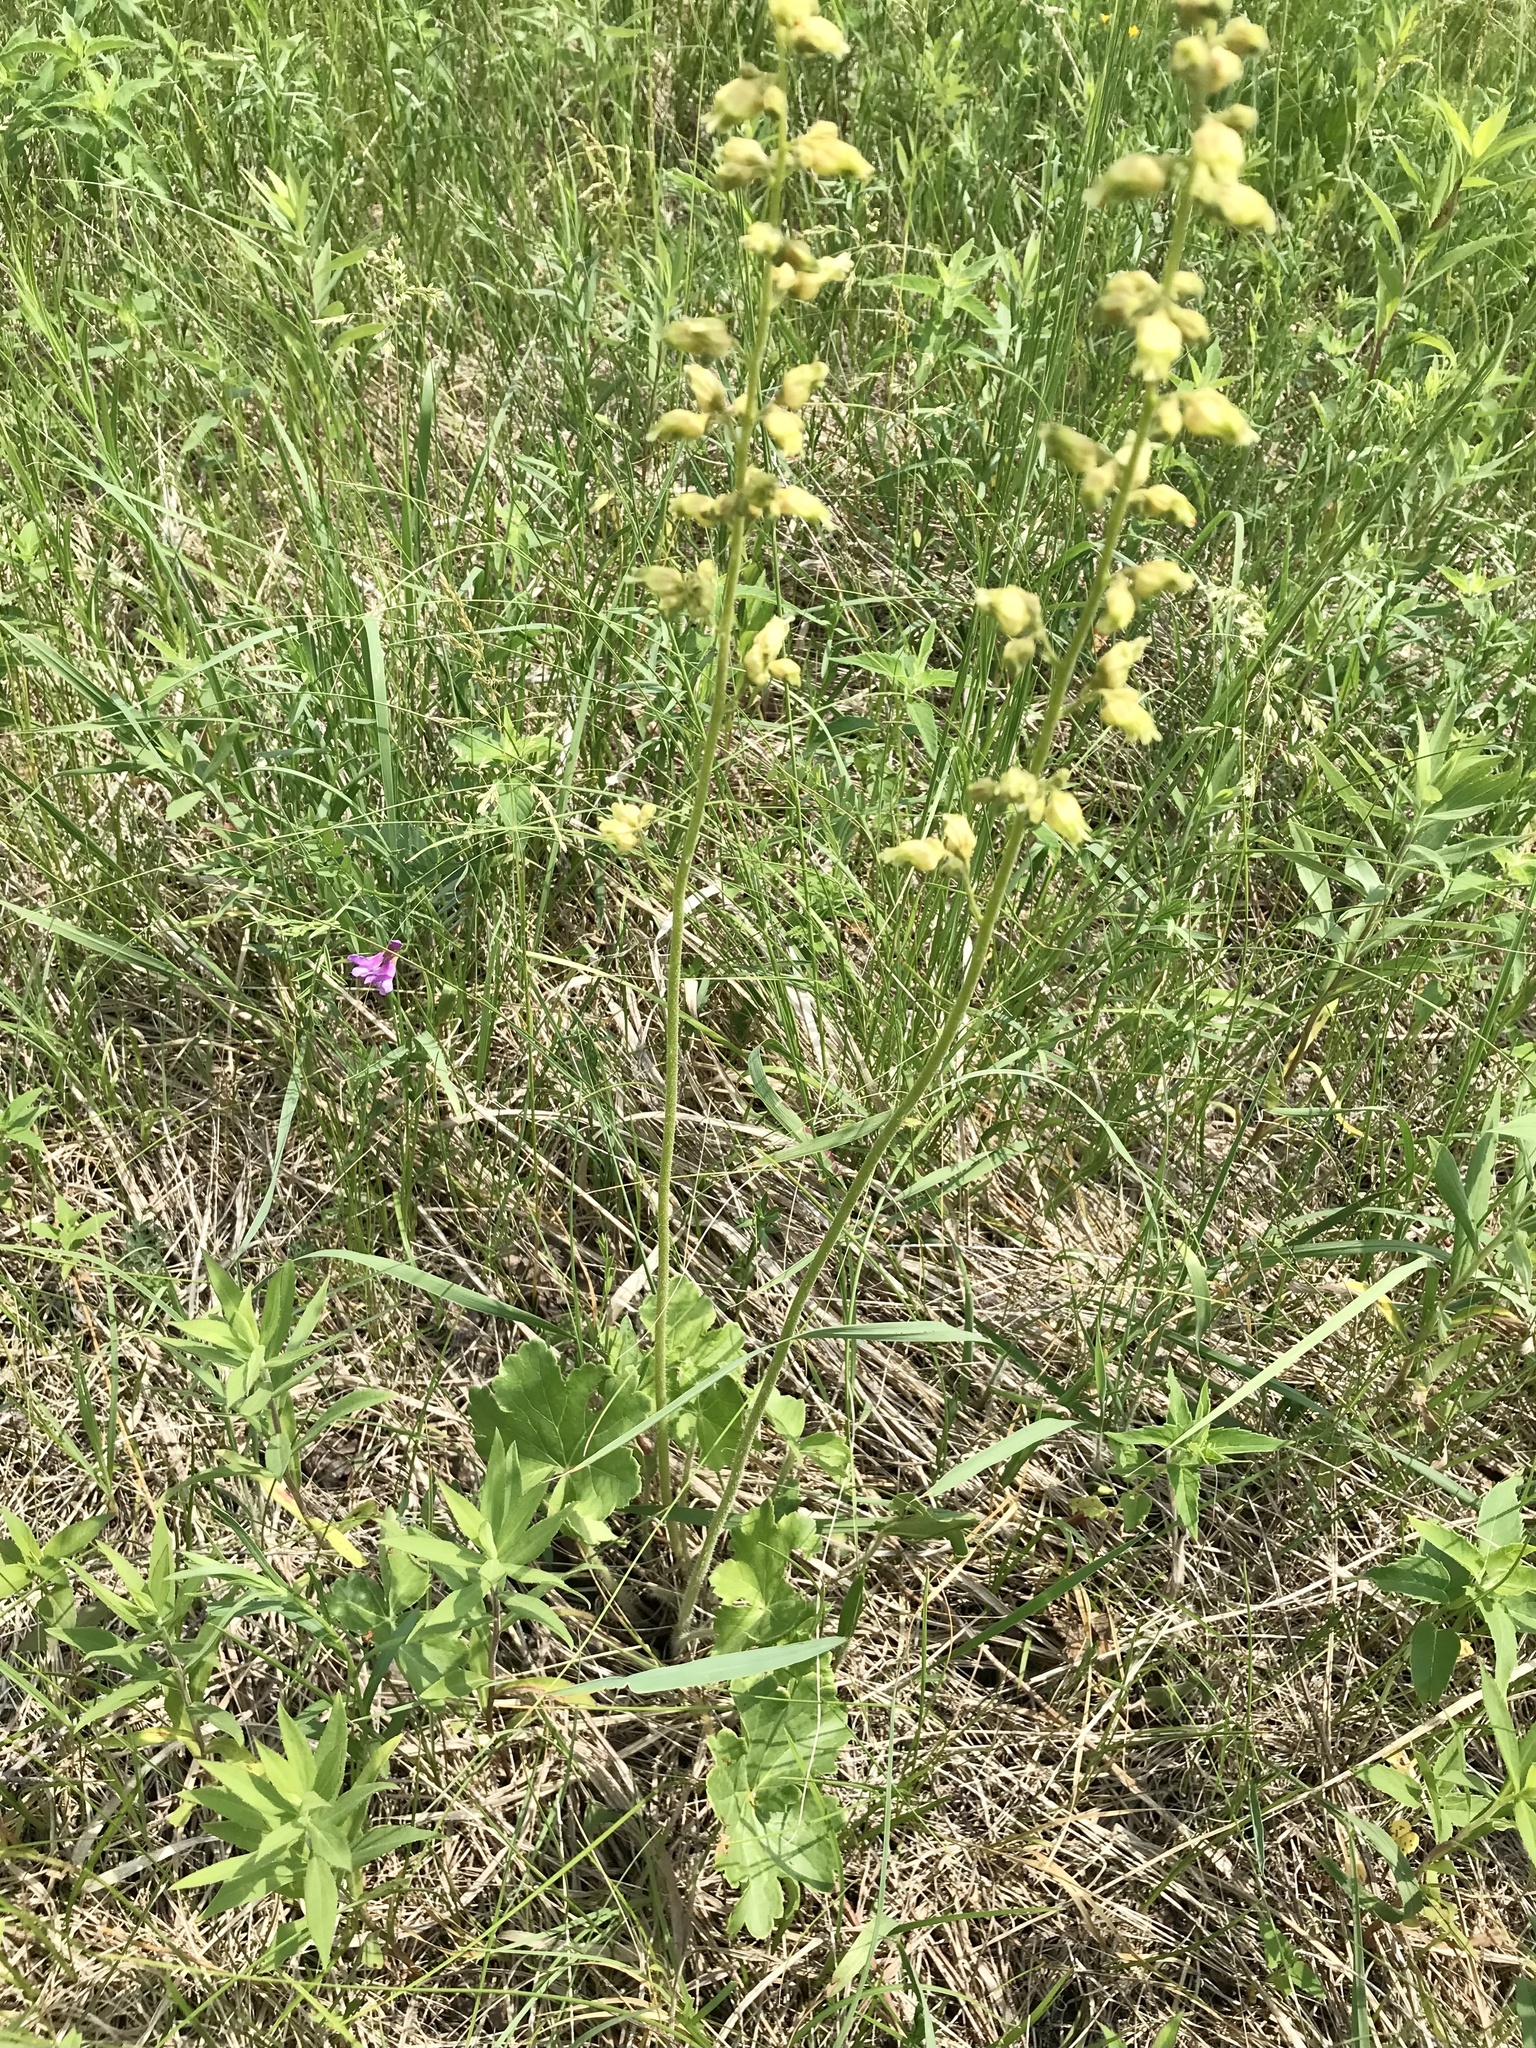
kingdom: Plantae
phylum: Tracheophyta
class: Magnoliopsida
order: Saxifragales
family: Saxifragaceae
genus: Heuchera
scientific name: Heuchera richardsonii
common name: Richardson's alumroot
